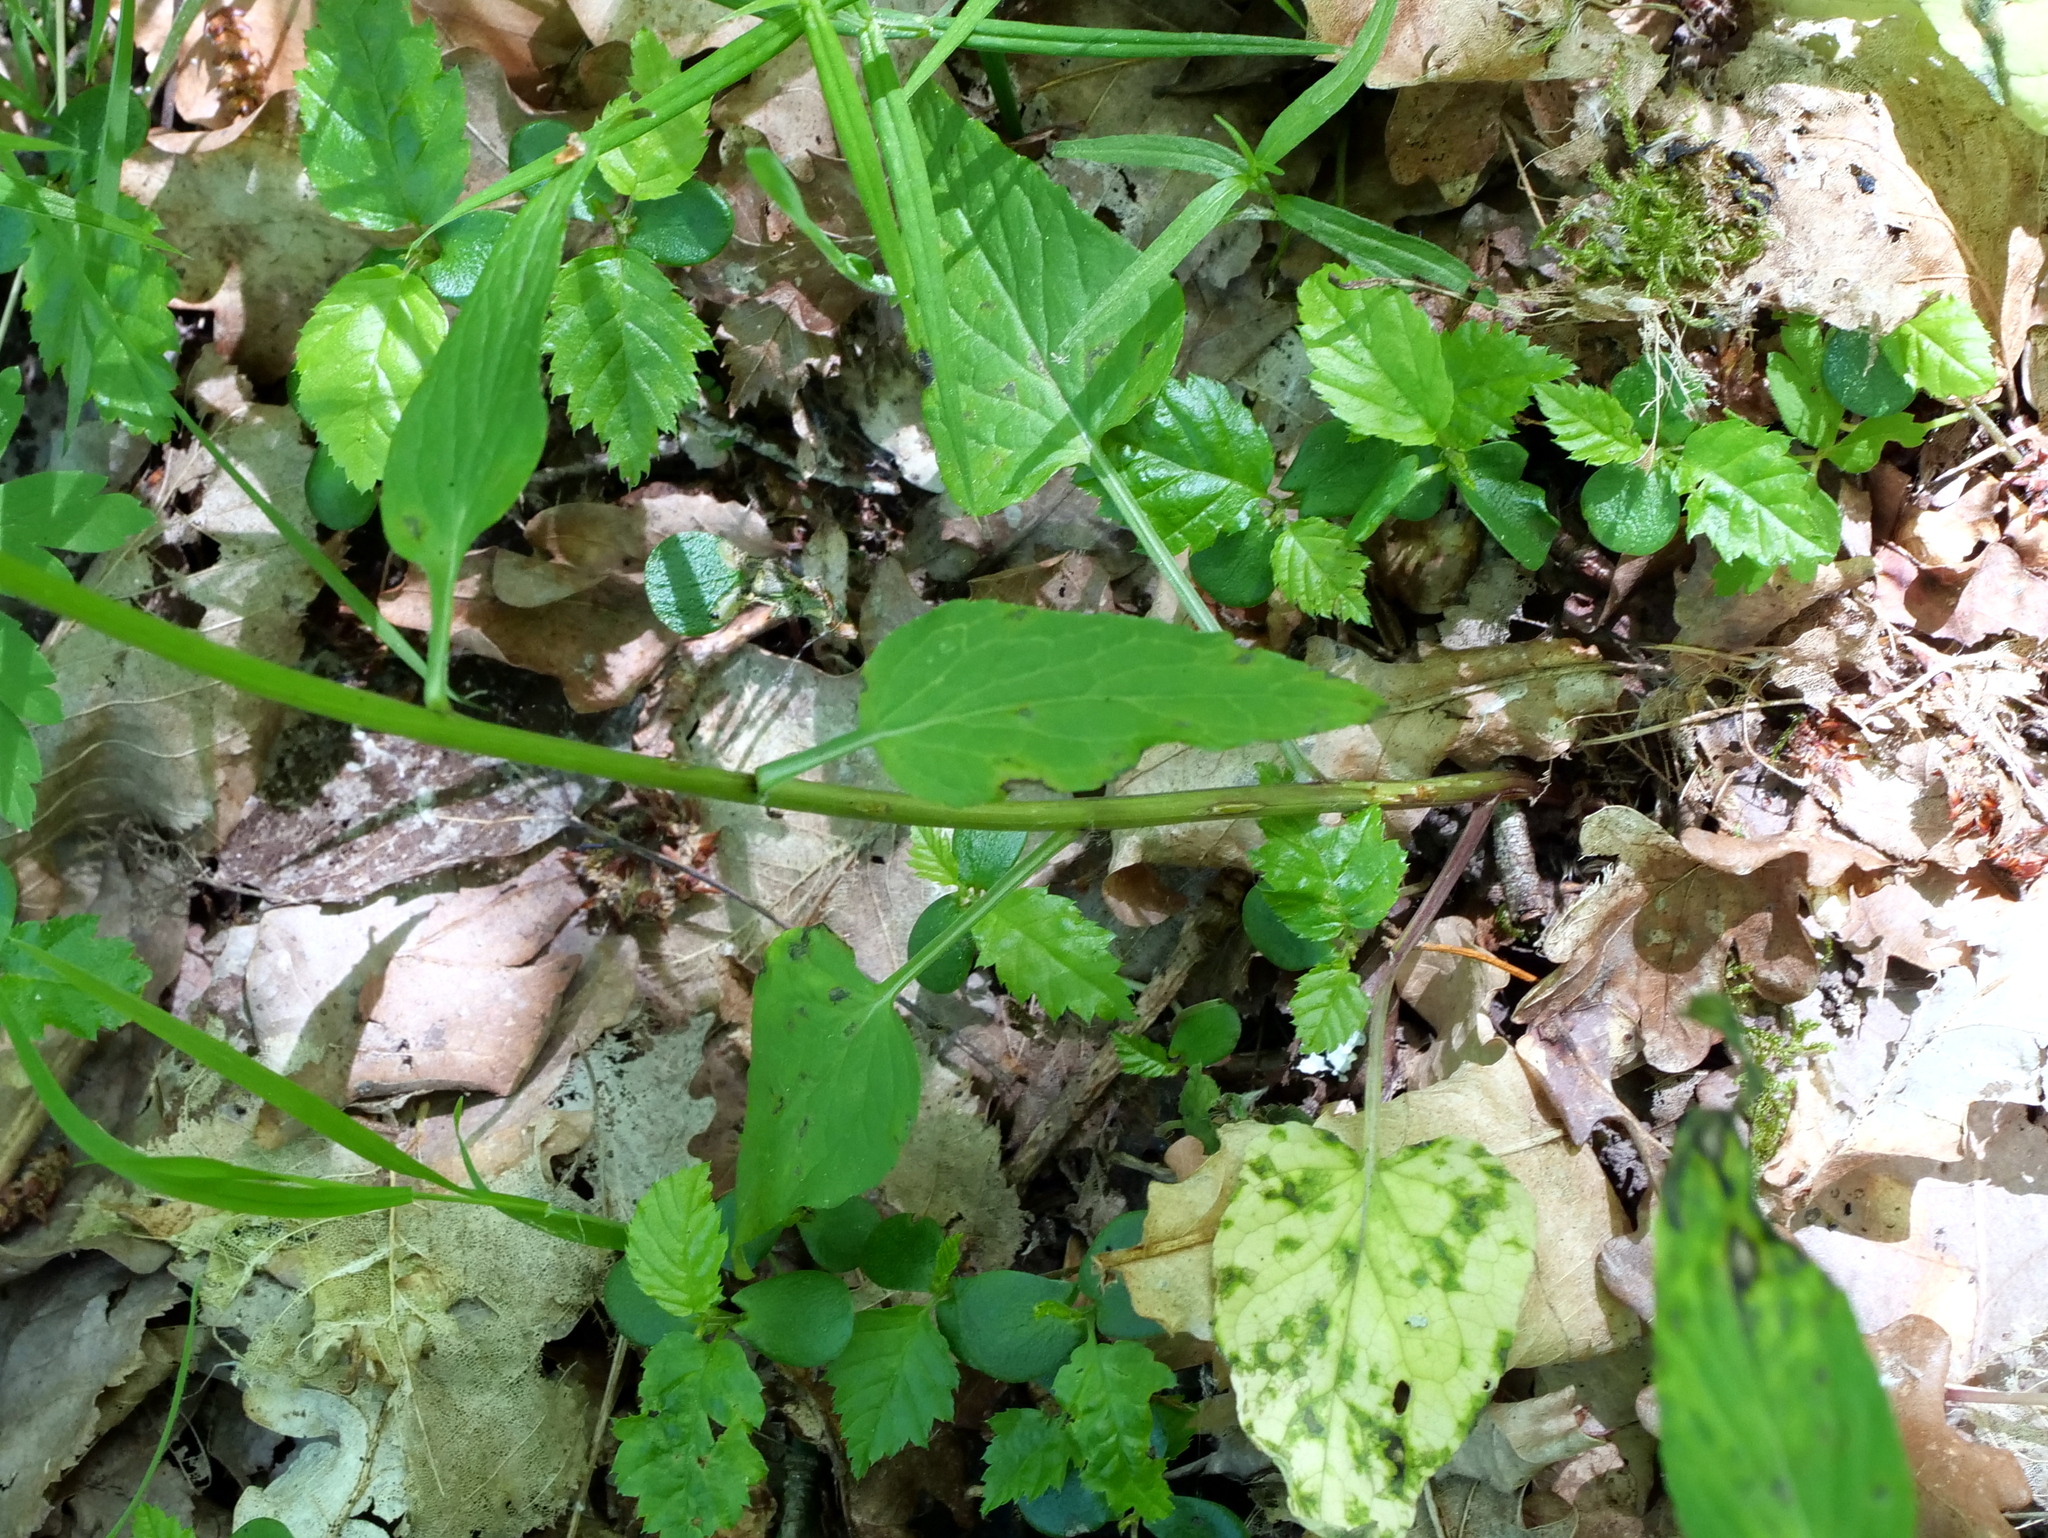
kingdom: Plantae
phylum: Tracheophyta
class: Magnoliopsida
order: Asterales
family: Campanulaceae
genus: Phyteuma
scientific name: Phyteuma nigrum
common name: Black rampion
